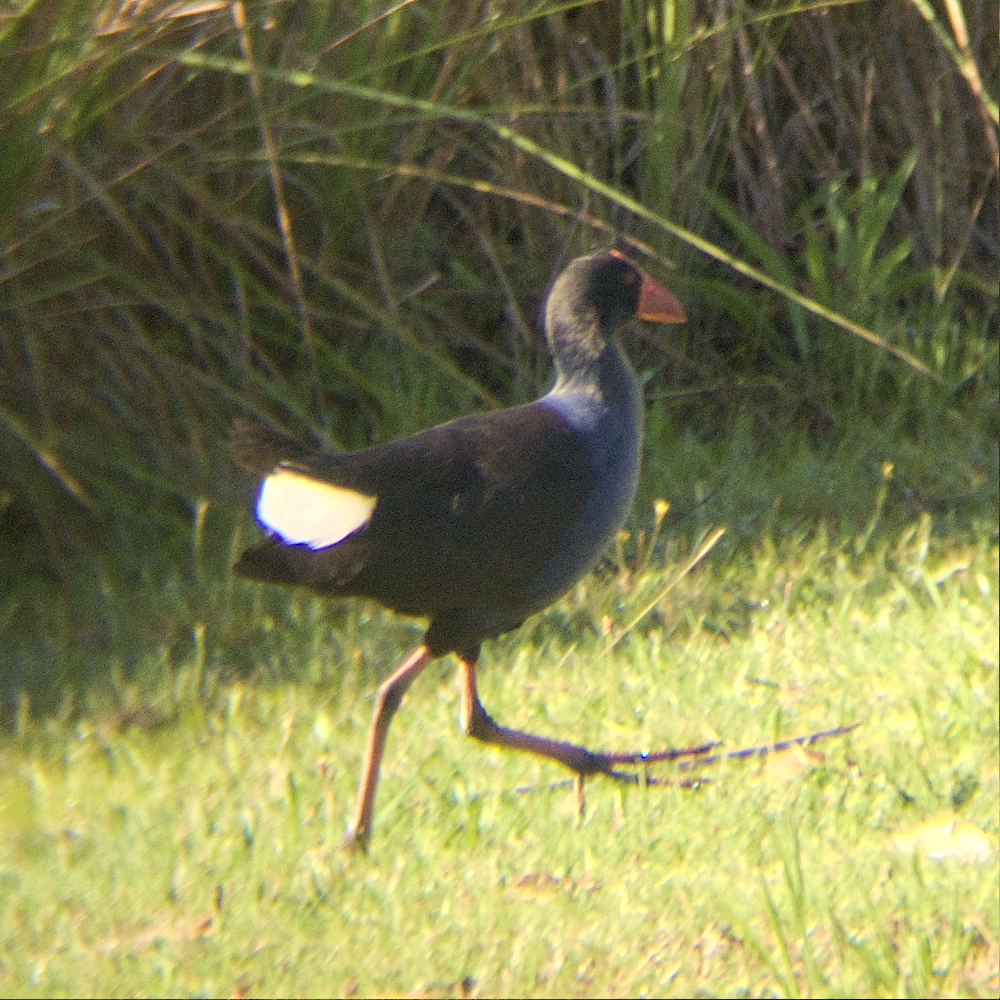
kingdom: Animalia
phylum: Chordata
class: Aves
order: Gruiformes
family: Rallidae
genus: Porphyrio
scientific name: Porphyrio melanotus
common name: Australasian swamphen
